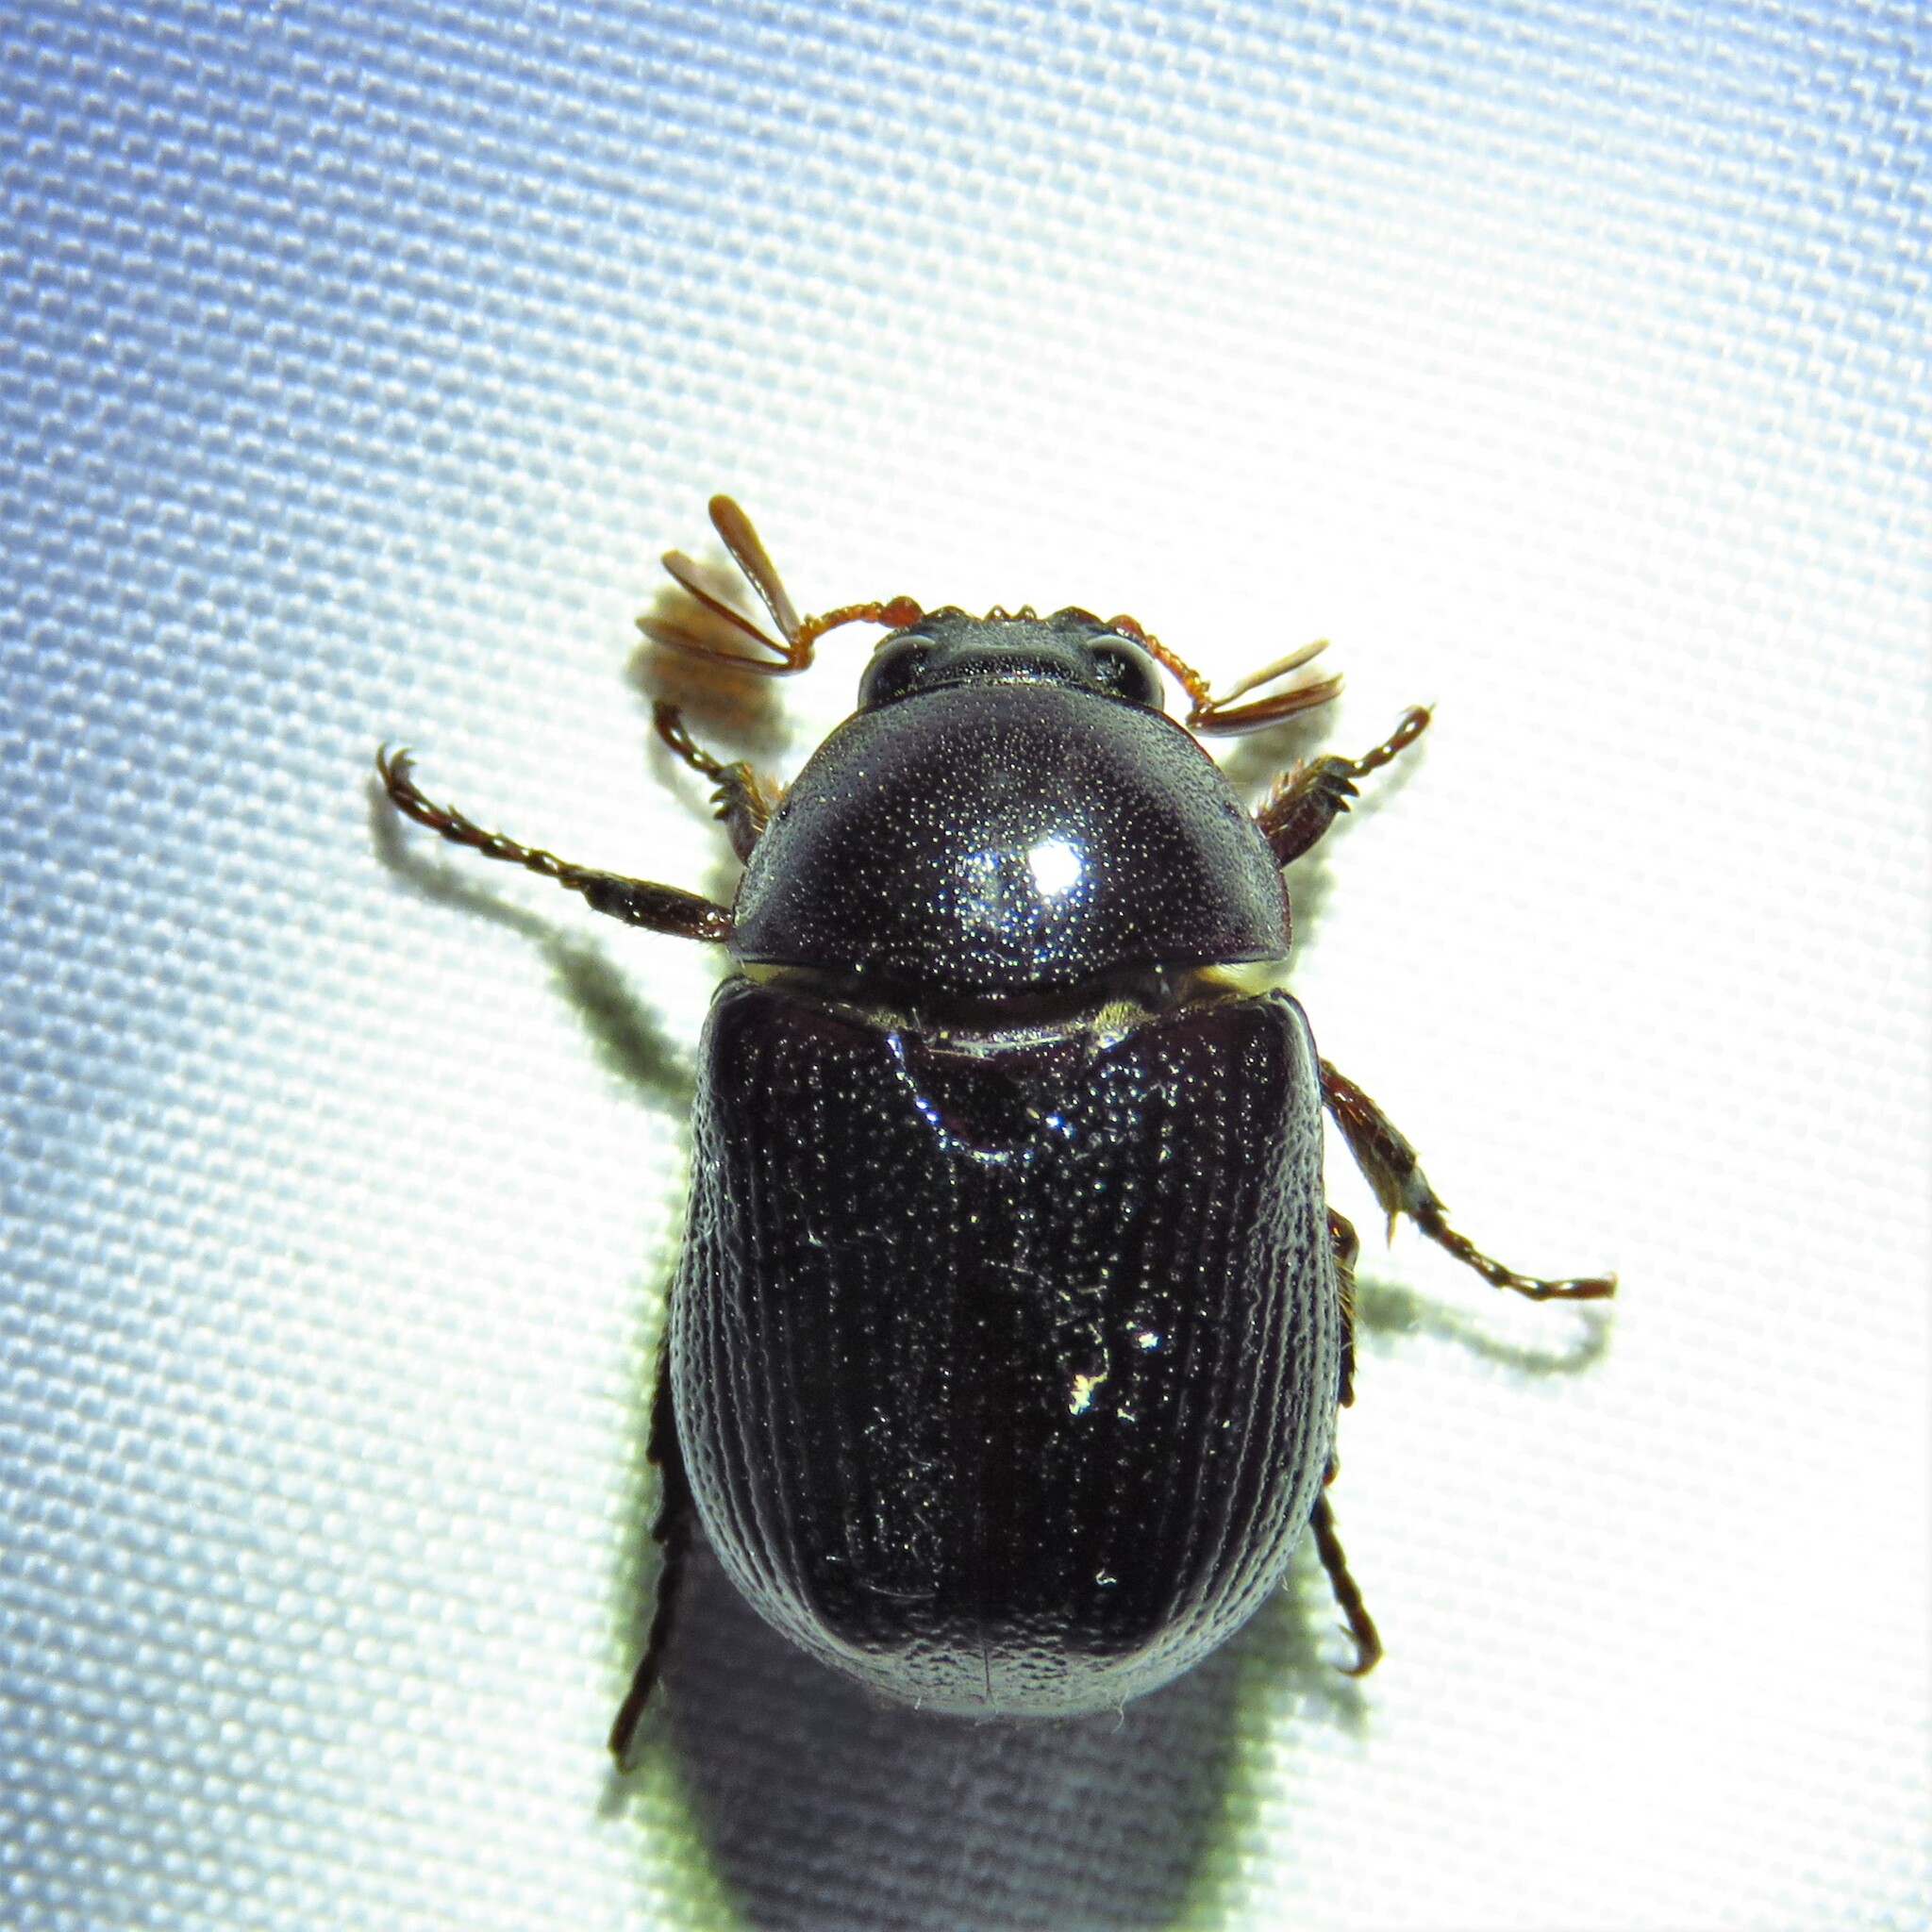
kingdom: Animalia
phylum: Arthropoda
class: Insecta
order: Coleoptera
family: Scarabaeidae
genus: Parastasia
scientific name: Parastasia brevipes
